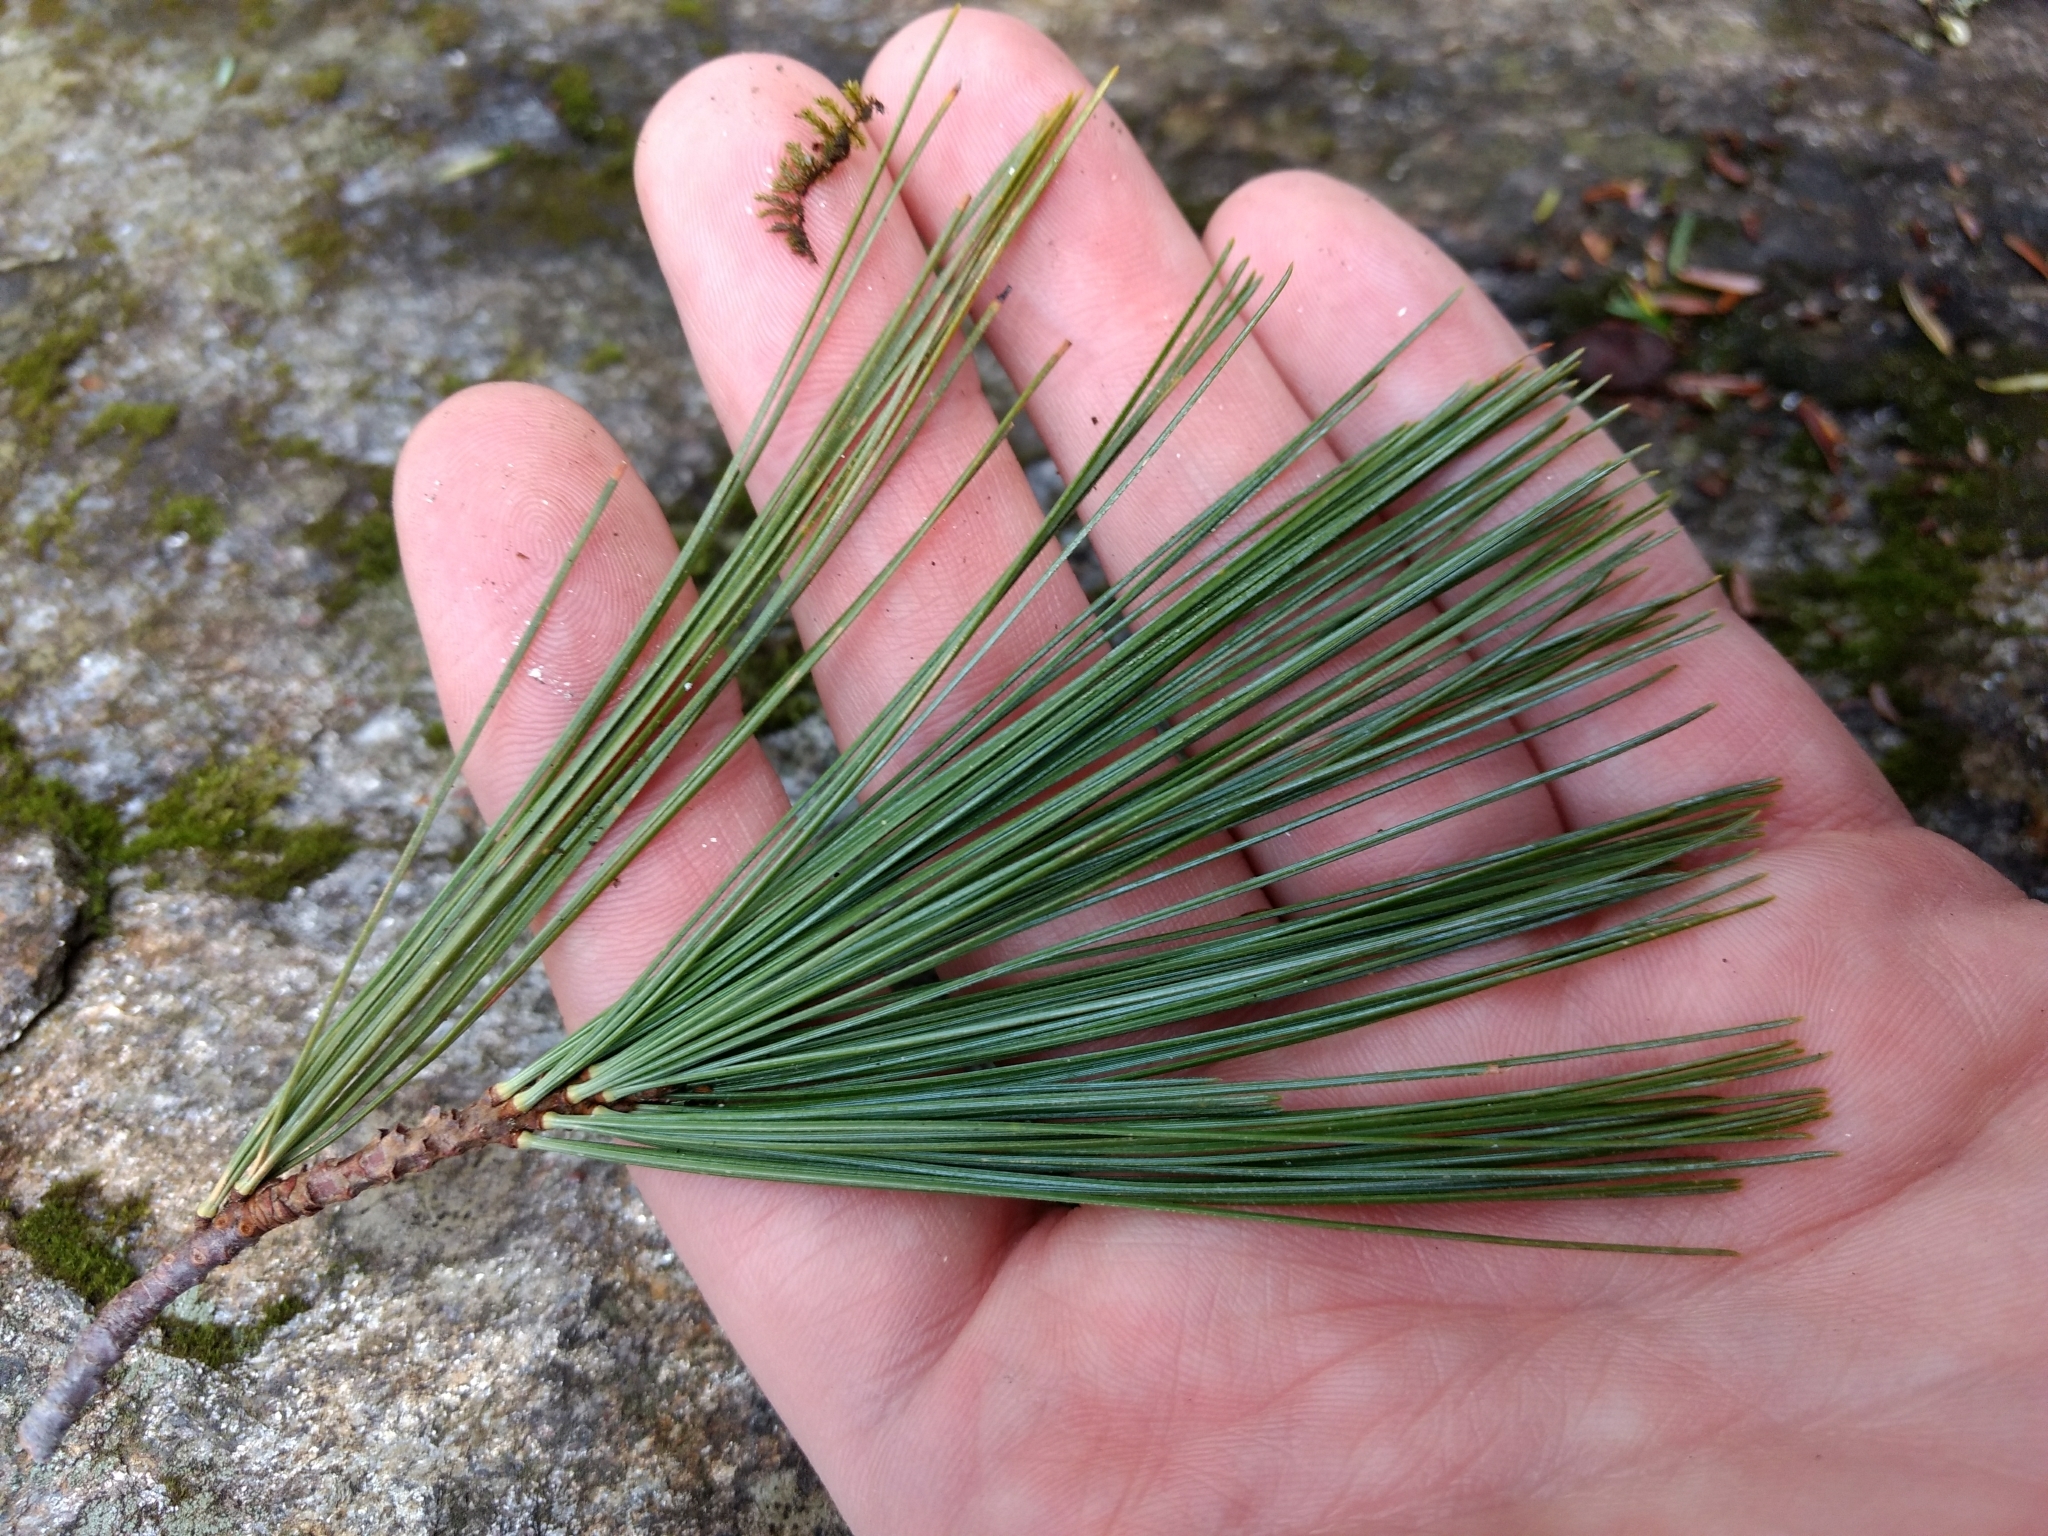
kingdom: Plantae
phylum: Tracheophyta
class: Pinopsida
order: Pinales
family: Pinaceae
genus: Pinus
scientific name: Pinus strobus
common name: Weymouth pine
